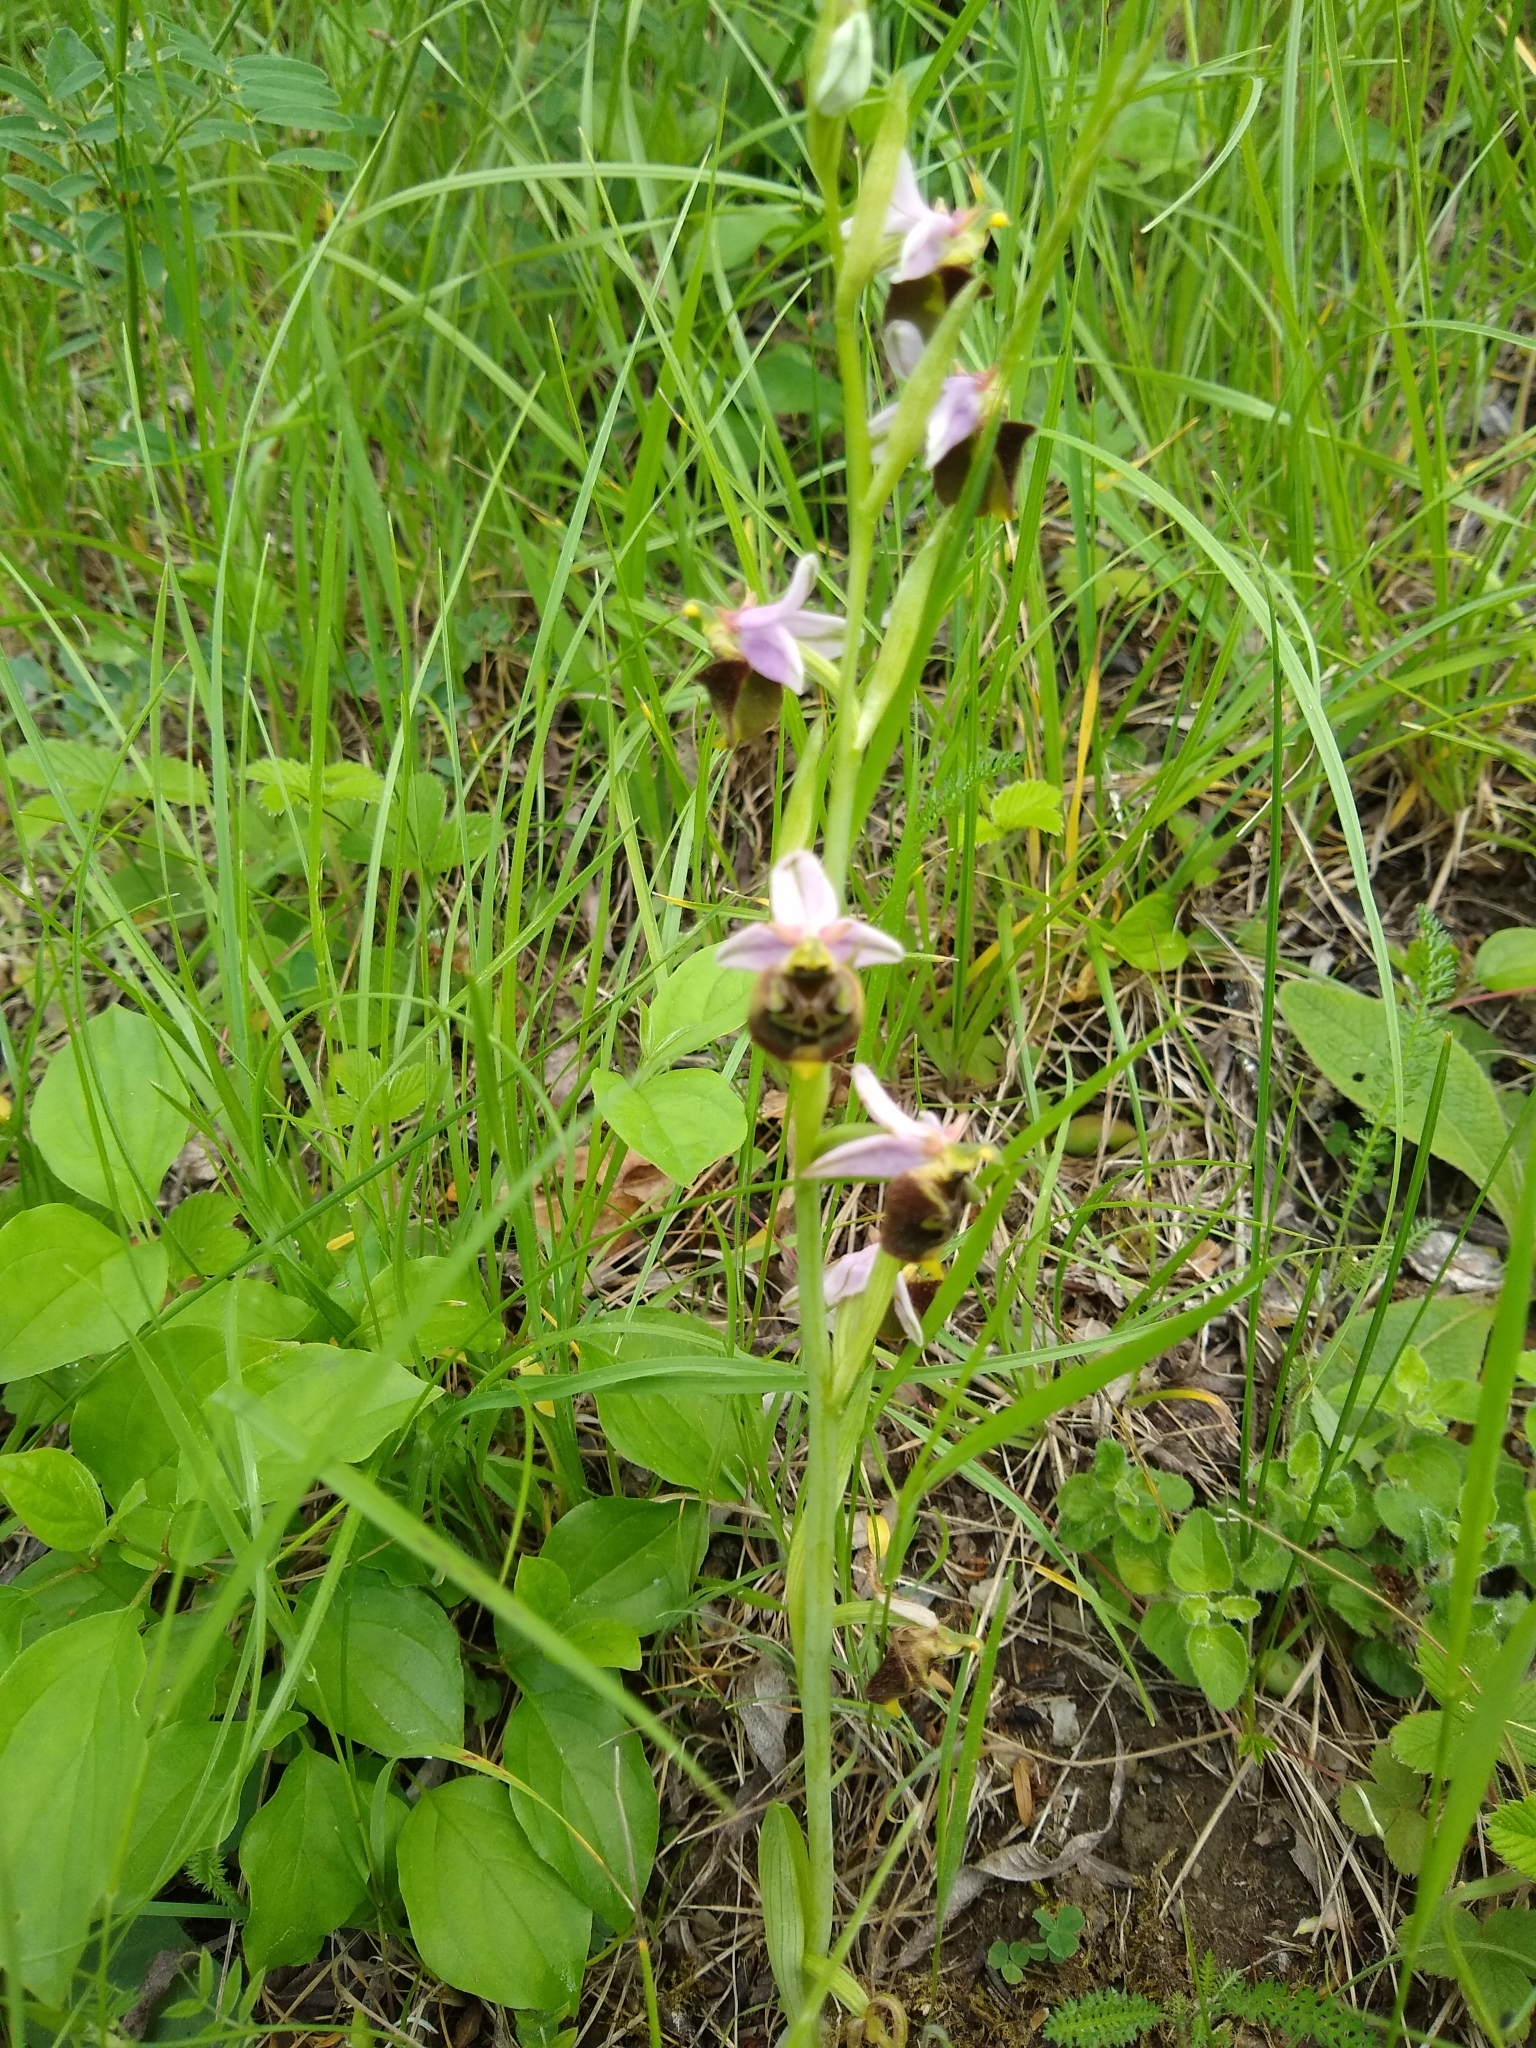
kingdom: Plantae
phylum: Tracheophyta
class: Liliopsida
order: Asparagales
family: Orchidaceae
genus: Ophrys
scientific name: Ophrys holosericea
